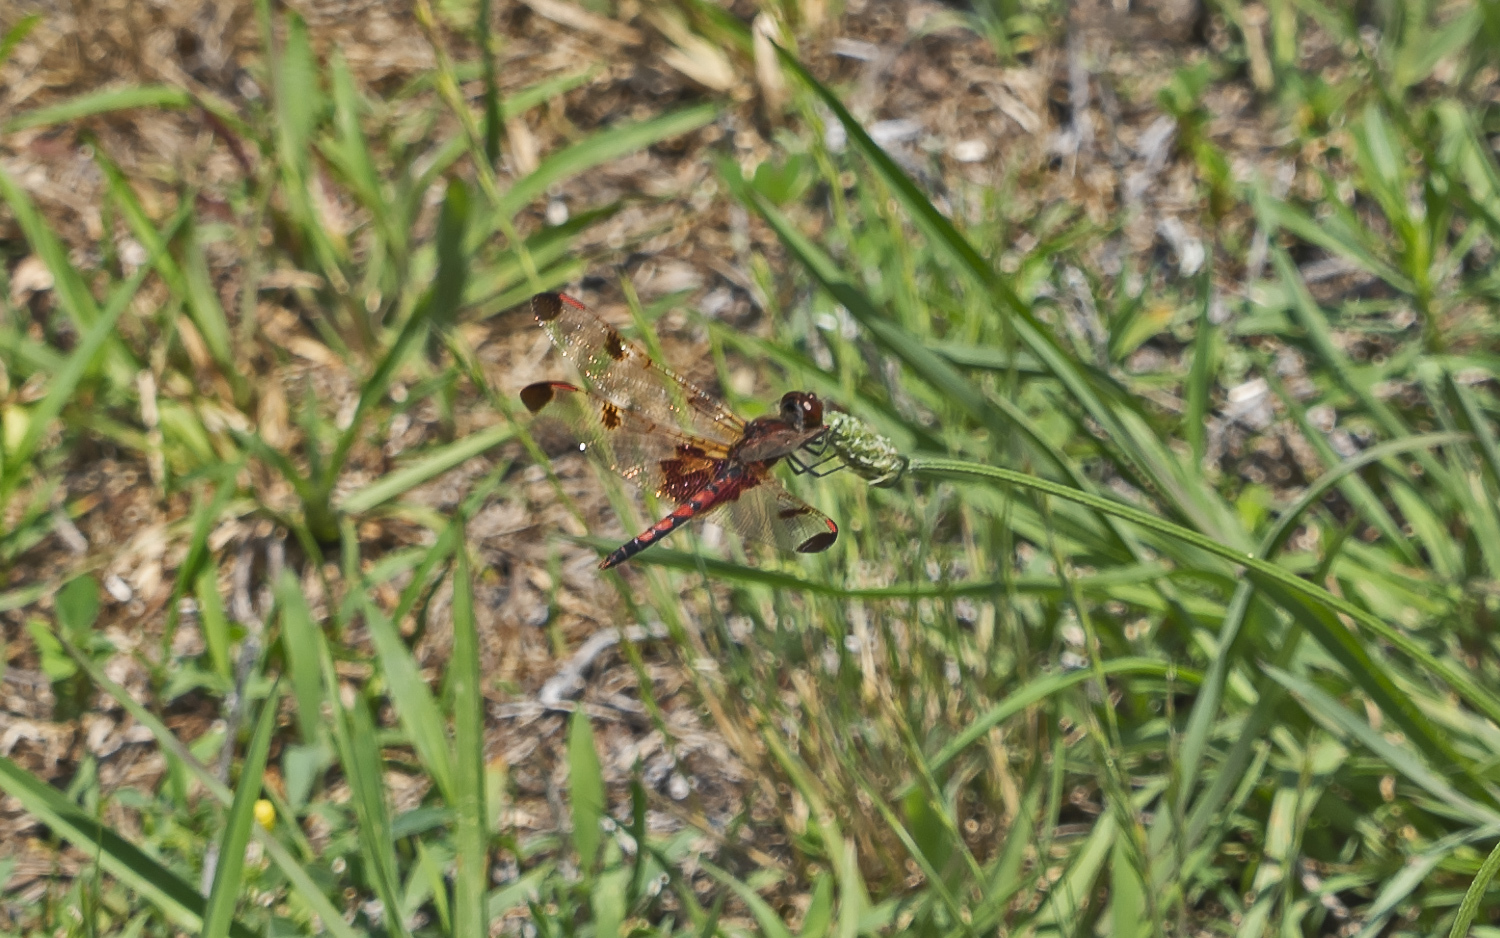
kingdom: Animalia
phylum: Arthropoda
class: Insecta
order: Odonata
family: Libellulidae
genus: Celithemis
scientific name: Celithemis elisa
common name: Calico pennant
